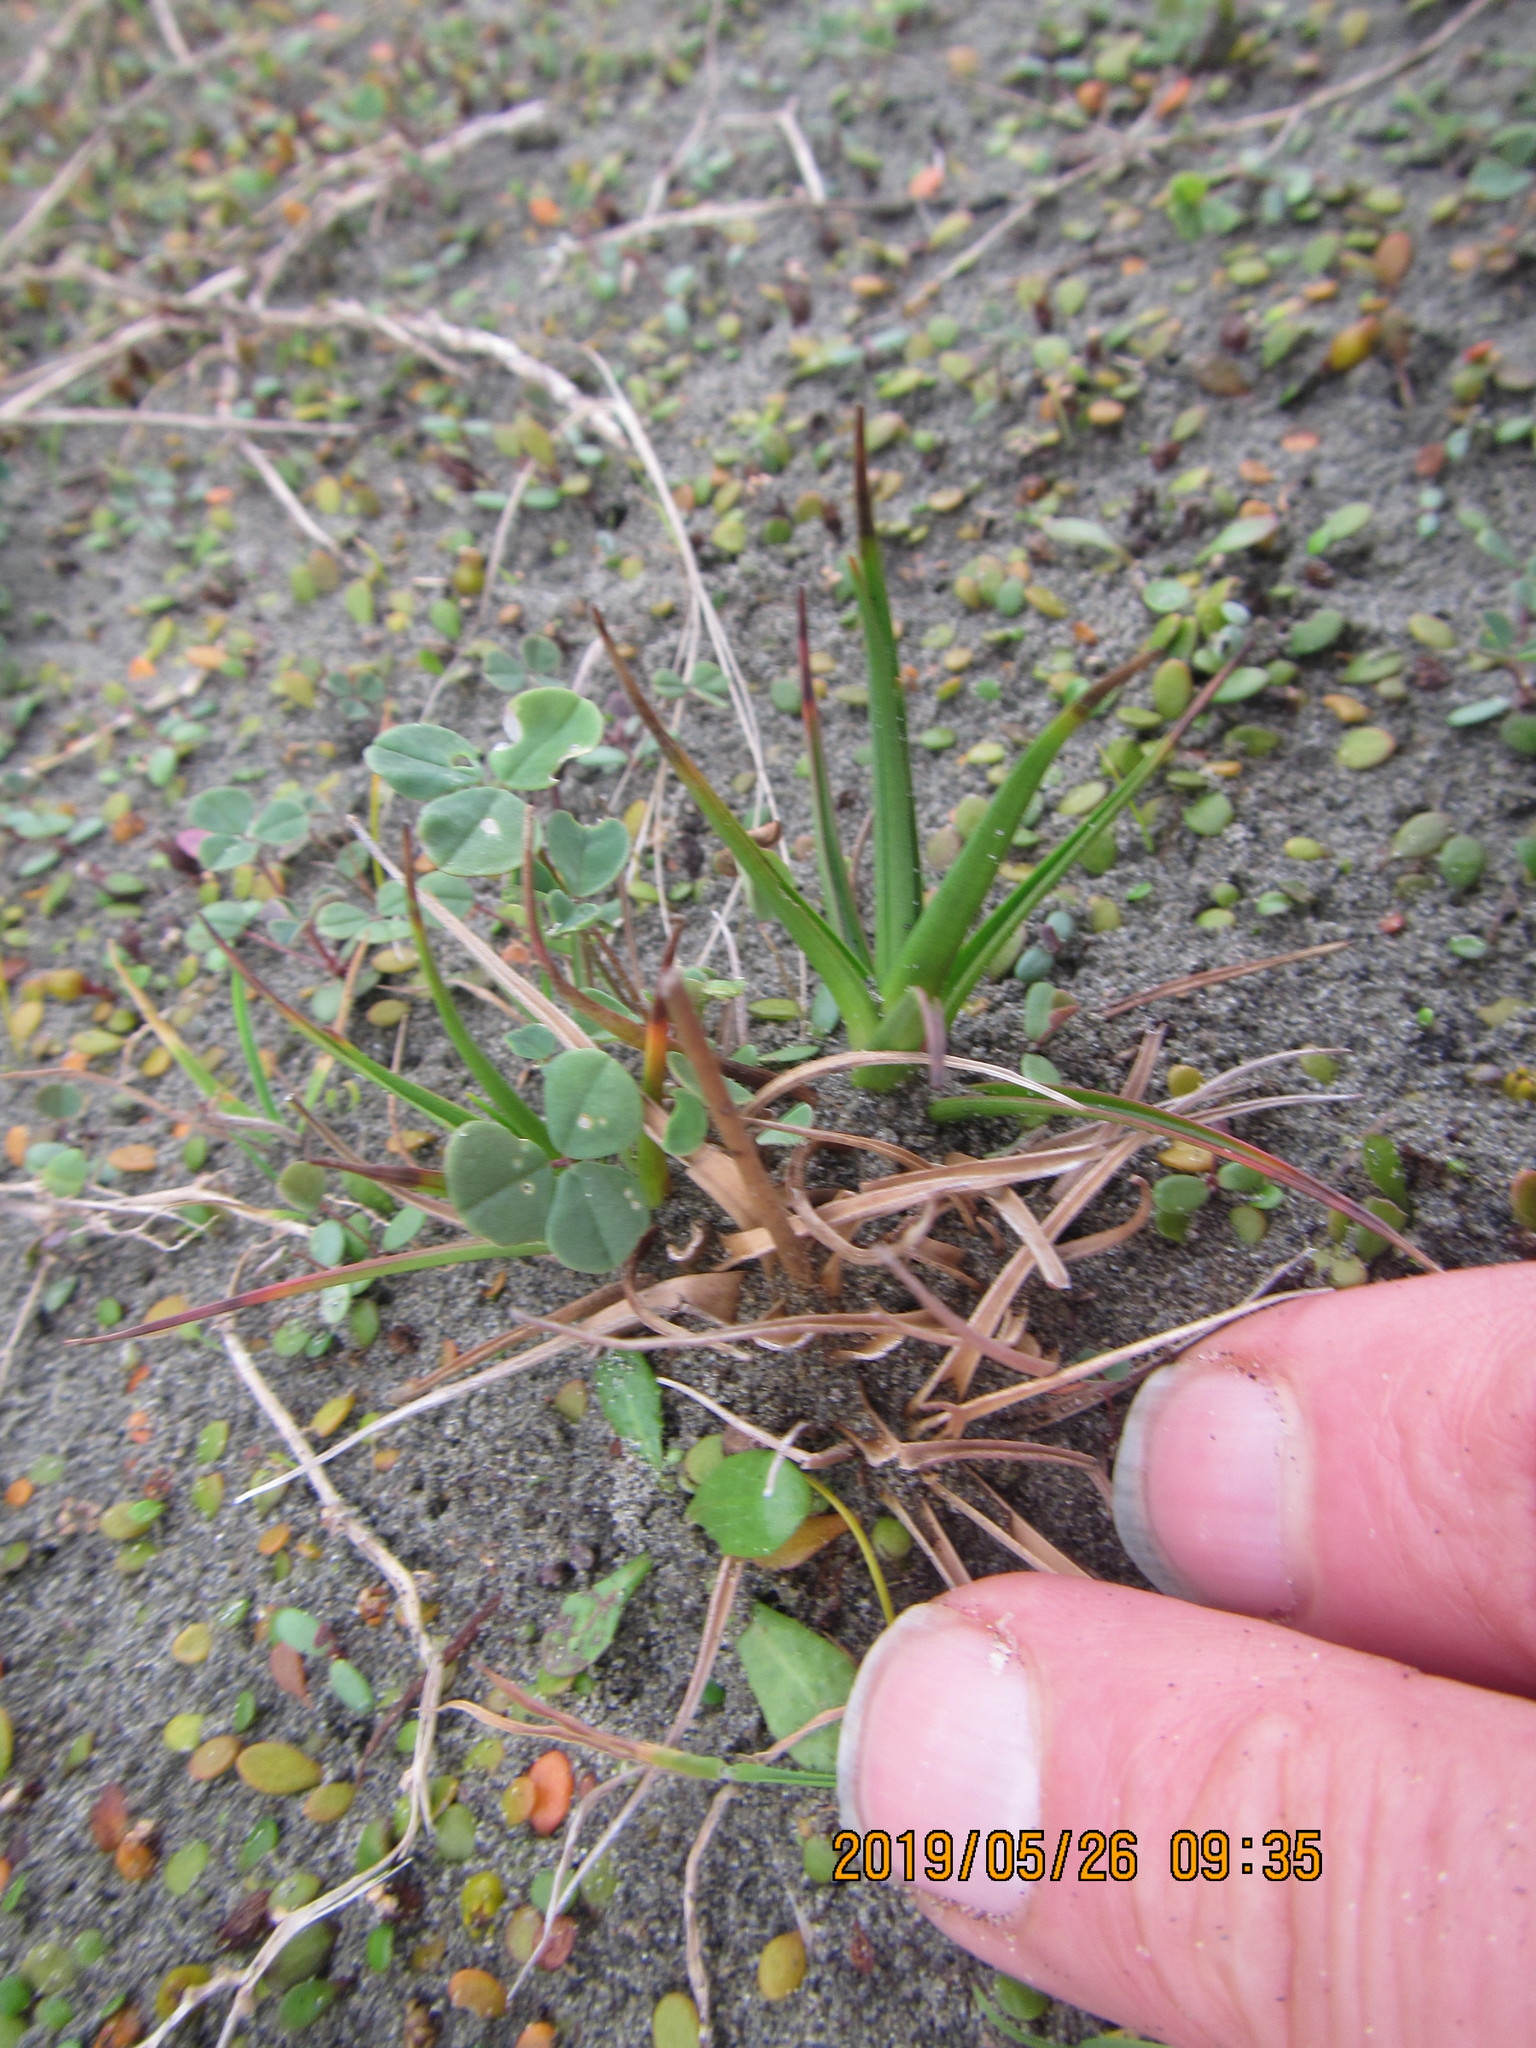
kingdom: Plantae
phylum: Tracheophyta
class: Liliopsida
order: Poales
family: Juncaceae
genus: Juncus
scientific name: Juncus caespiticius
